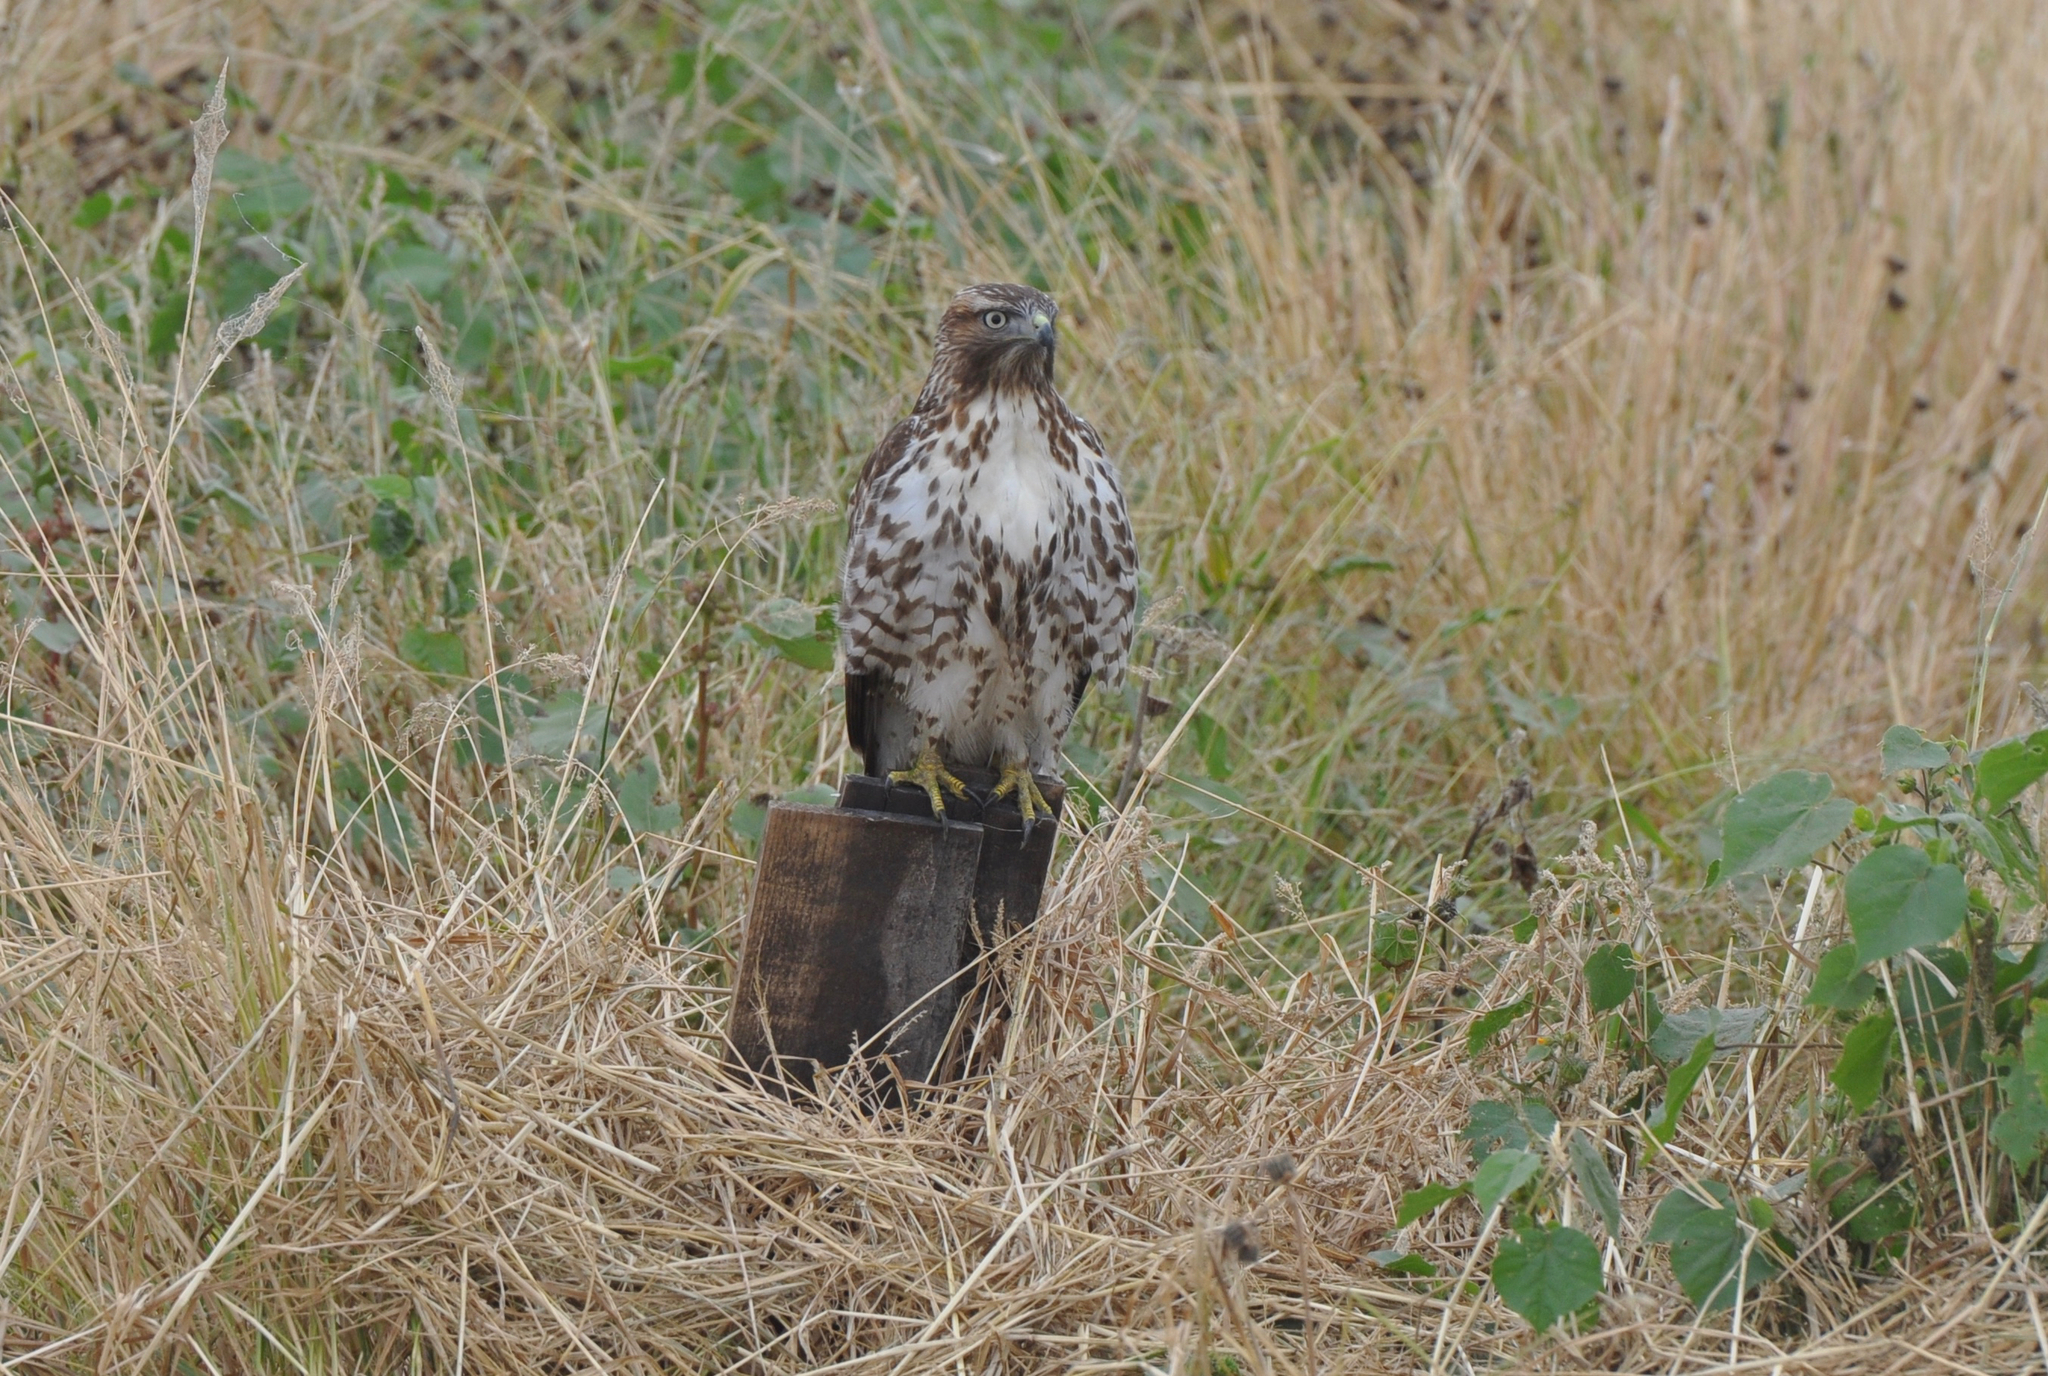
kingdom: Animalia
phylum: Chordata
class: Aves
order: Accipitriformes
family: Accipitridae
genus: Buteo
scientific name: Buteo jamaicensis
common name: Red-tailed hawk
